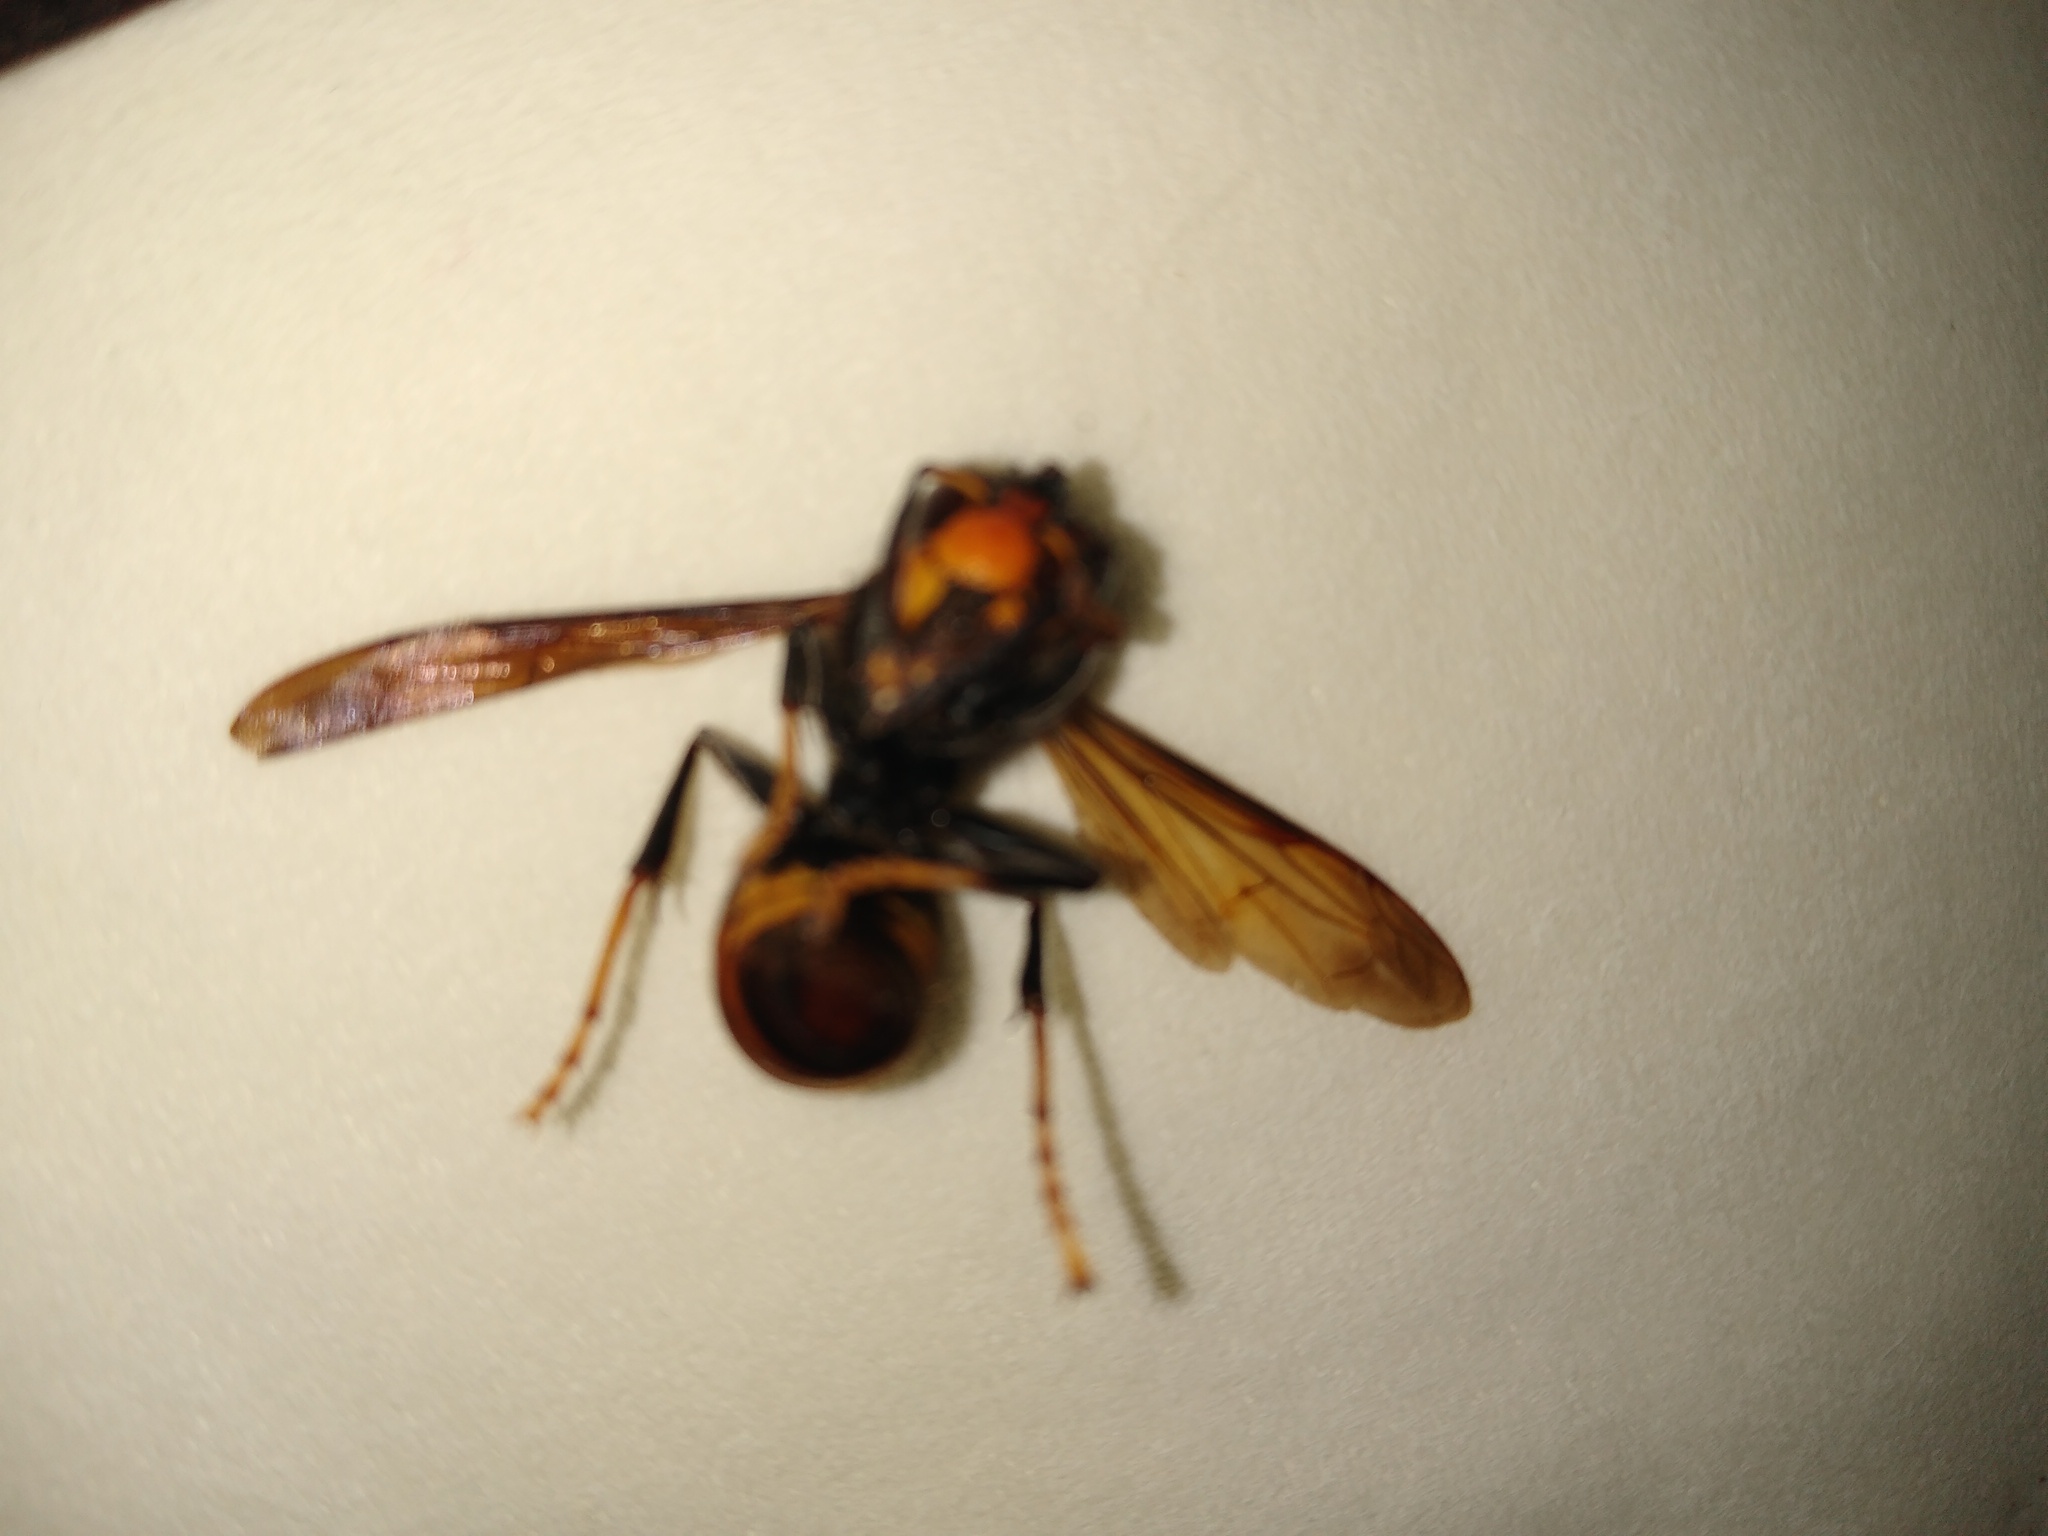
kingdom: Animalia
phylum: Arthropoda
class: Insecta
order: Hymenoptera
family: Vespidae
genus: Vespa
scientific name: Vespa velutina
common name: Asian hornet
